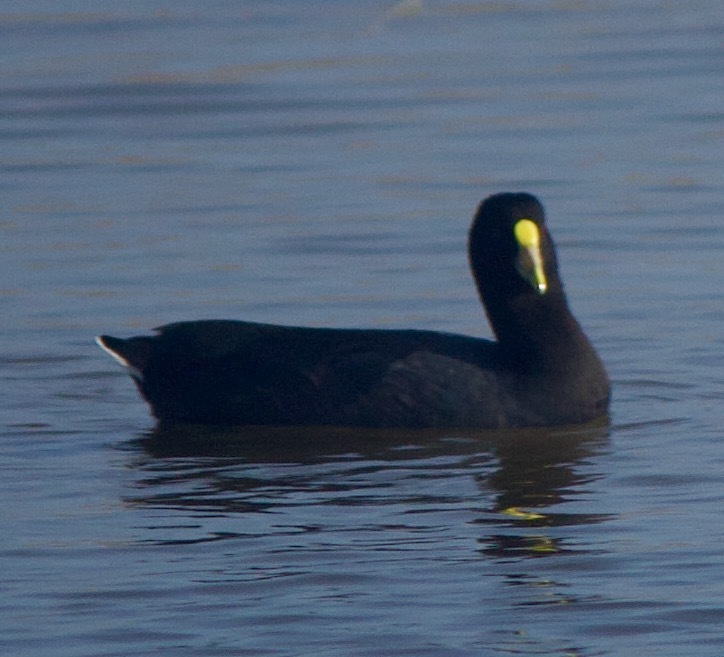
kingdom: Animalia
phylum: Chordata
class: Aves
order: Gruiformes
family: Rallidae
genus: Fulica
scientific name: Fulica leucoptera
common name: White-winged coot
